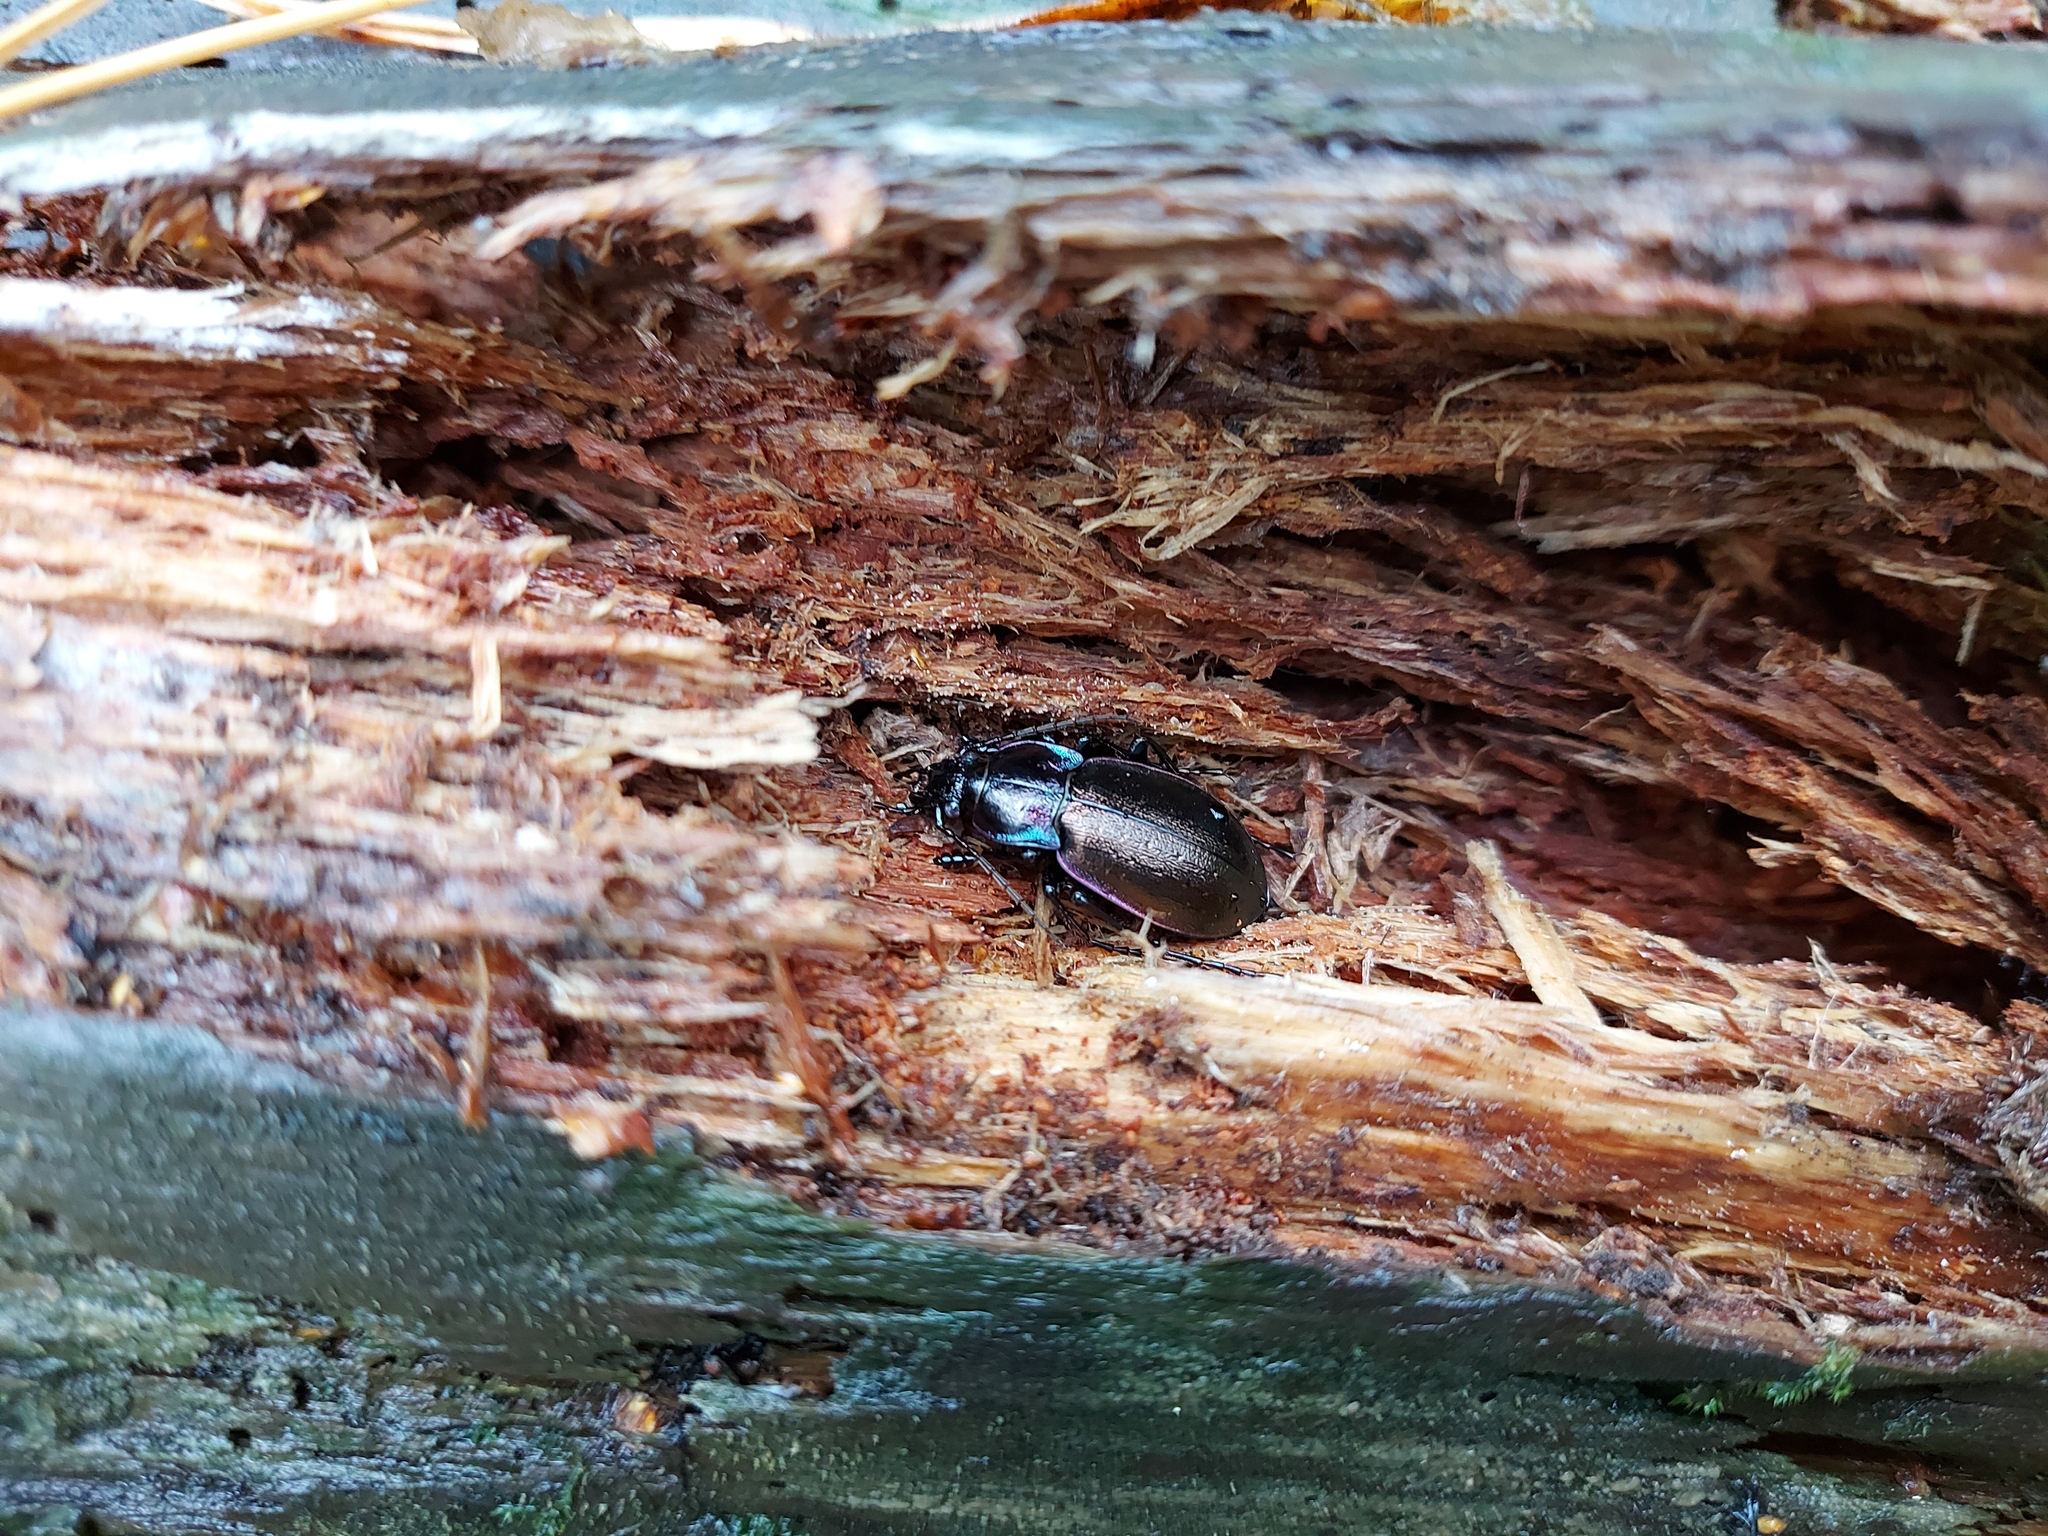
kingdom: Animalia
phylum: Arthropoda
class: Insecta
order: Coleoptera
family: Carabidae
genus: Carabus
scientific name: Carabus nemoralis
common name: European ground beetle
